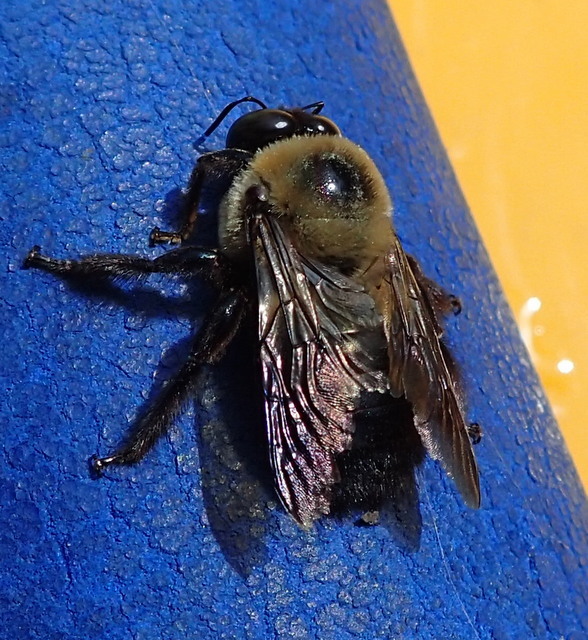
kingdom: Animalia
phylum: Arthropoda
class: Insecta
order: Hymenoptera
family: Apidae
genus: Xylocopa
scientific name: Xylocopa virginica
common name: Carpenter bee
